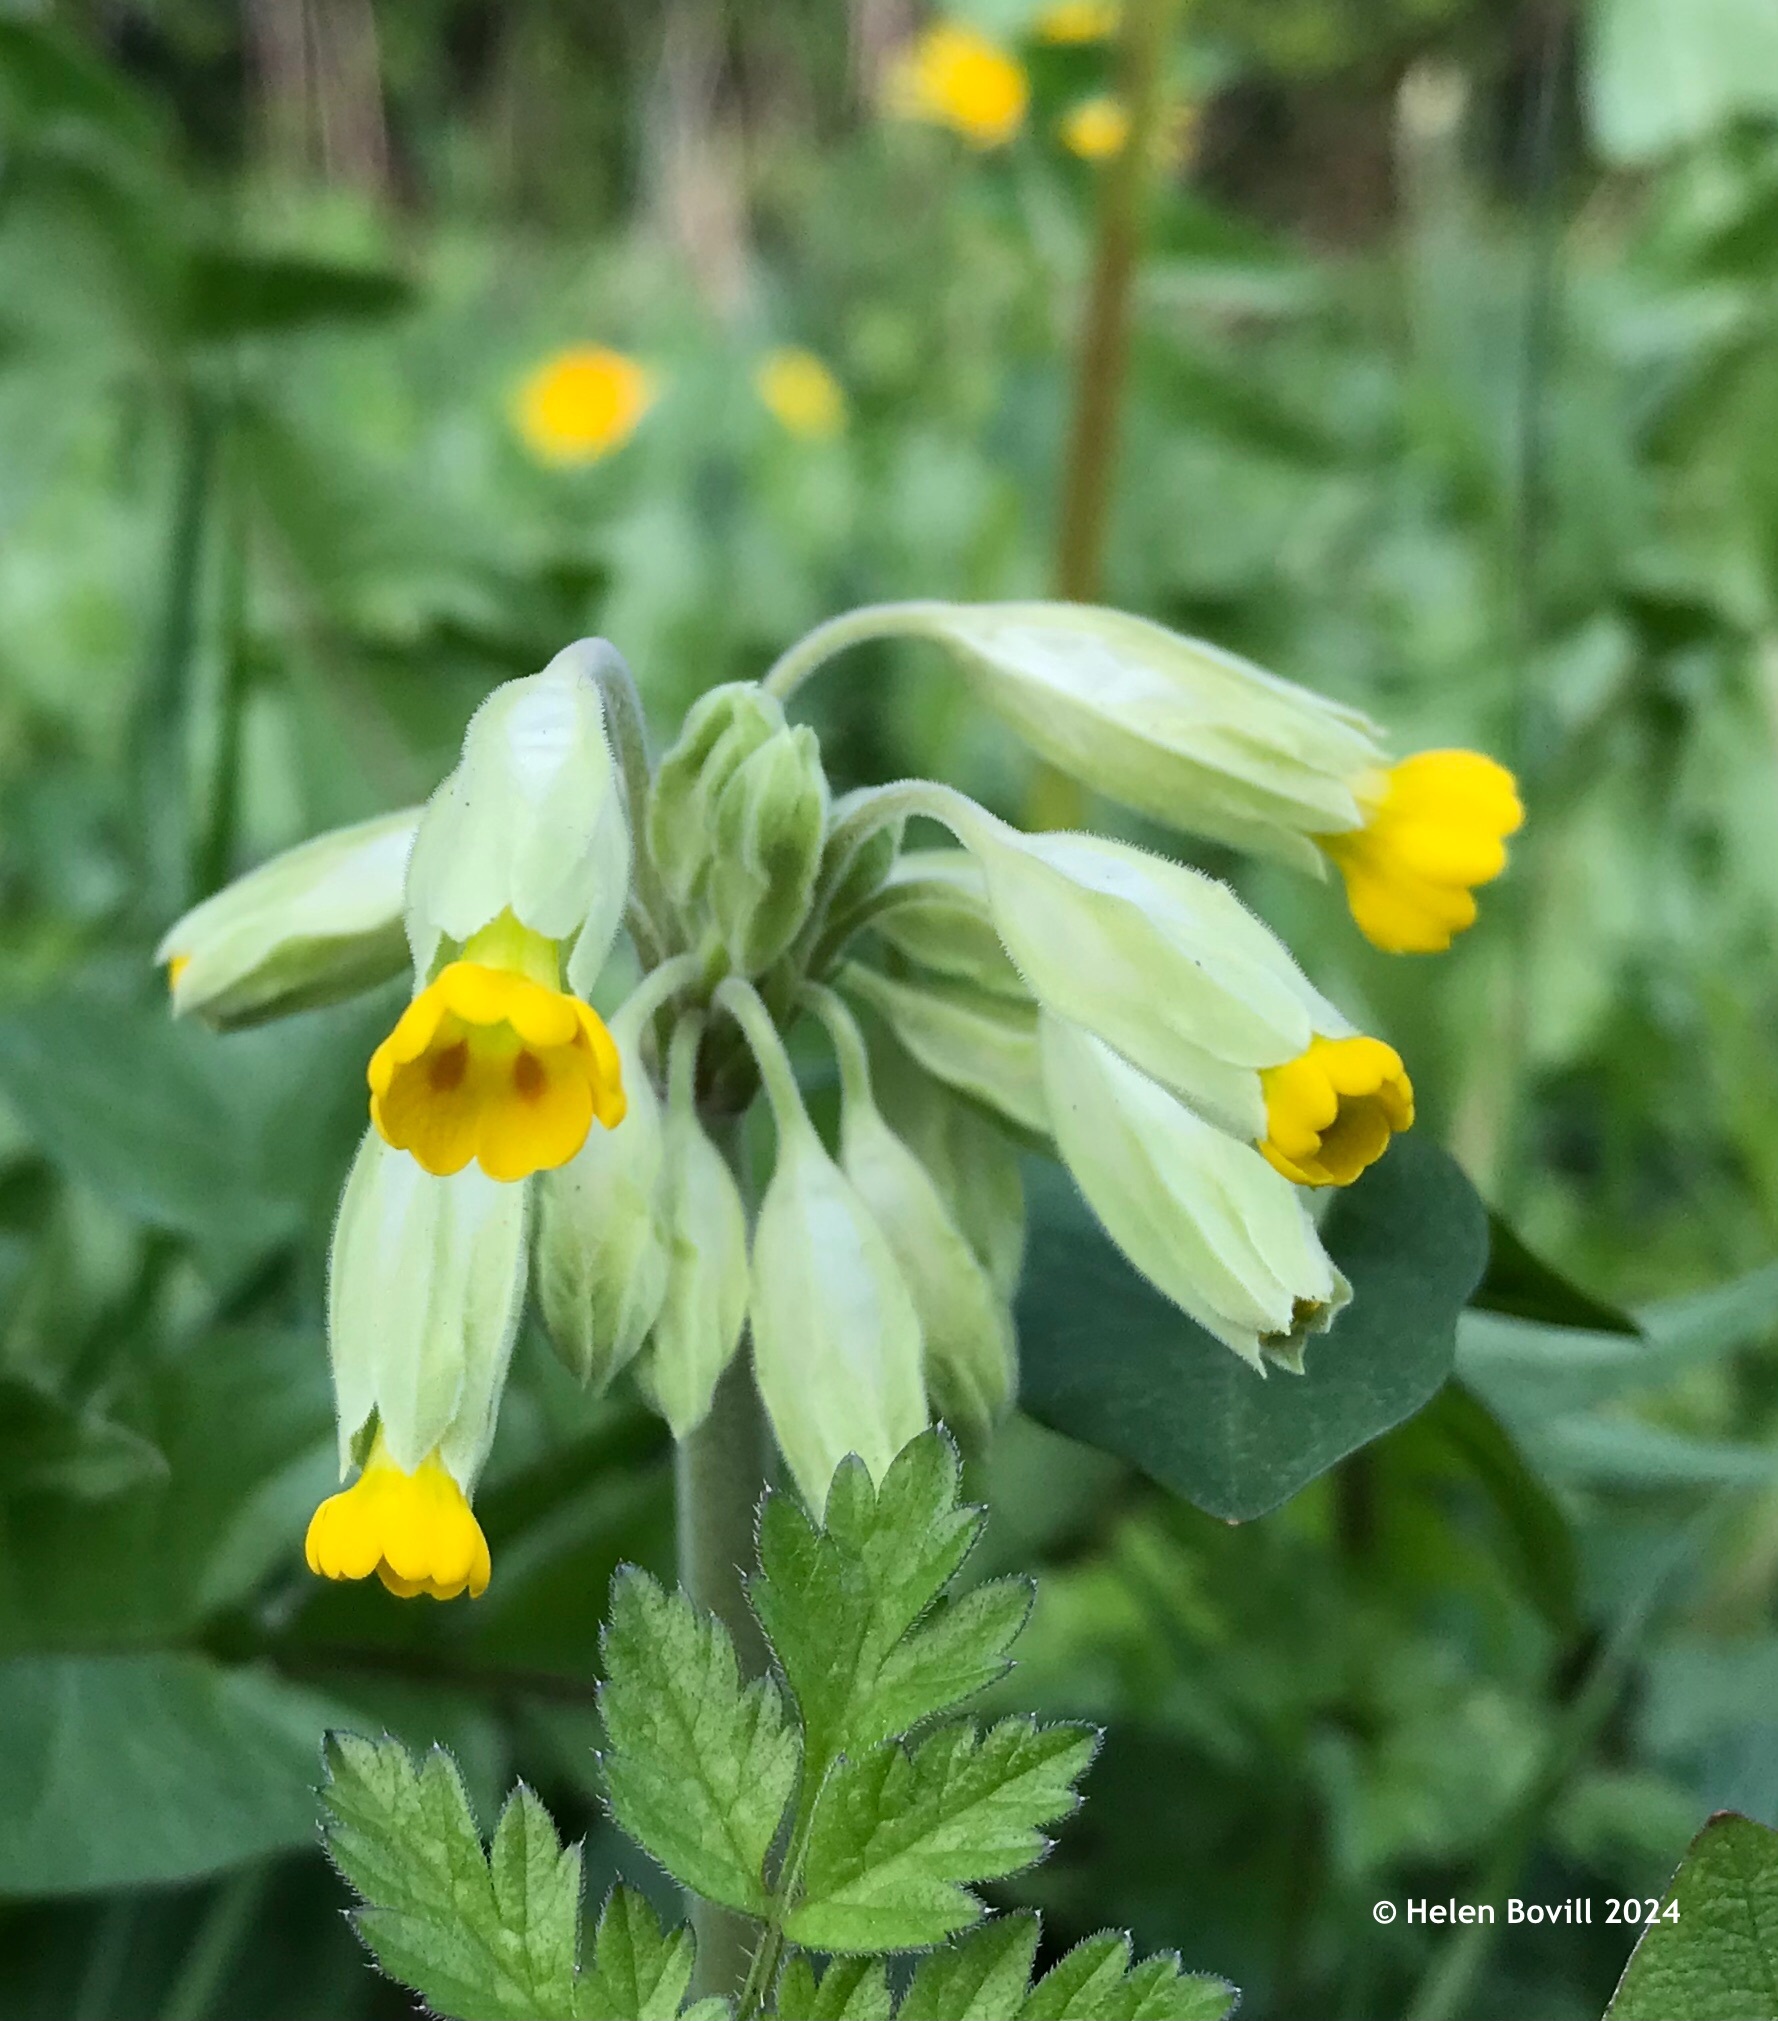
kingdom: Plantae
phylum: Tracheophyta
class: Magnoliopsida
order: Ericales
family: Primulaceae
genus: Primula
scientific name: Primula veris
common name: Cowslip
